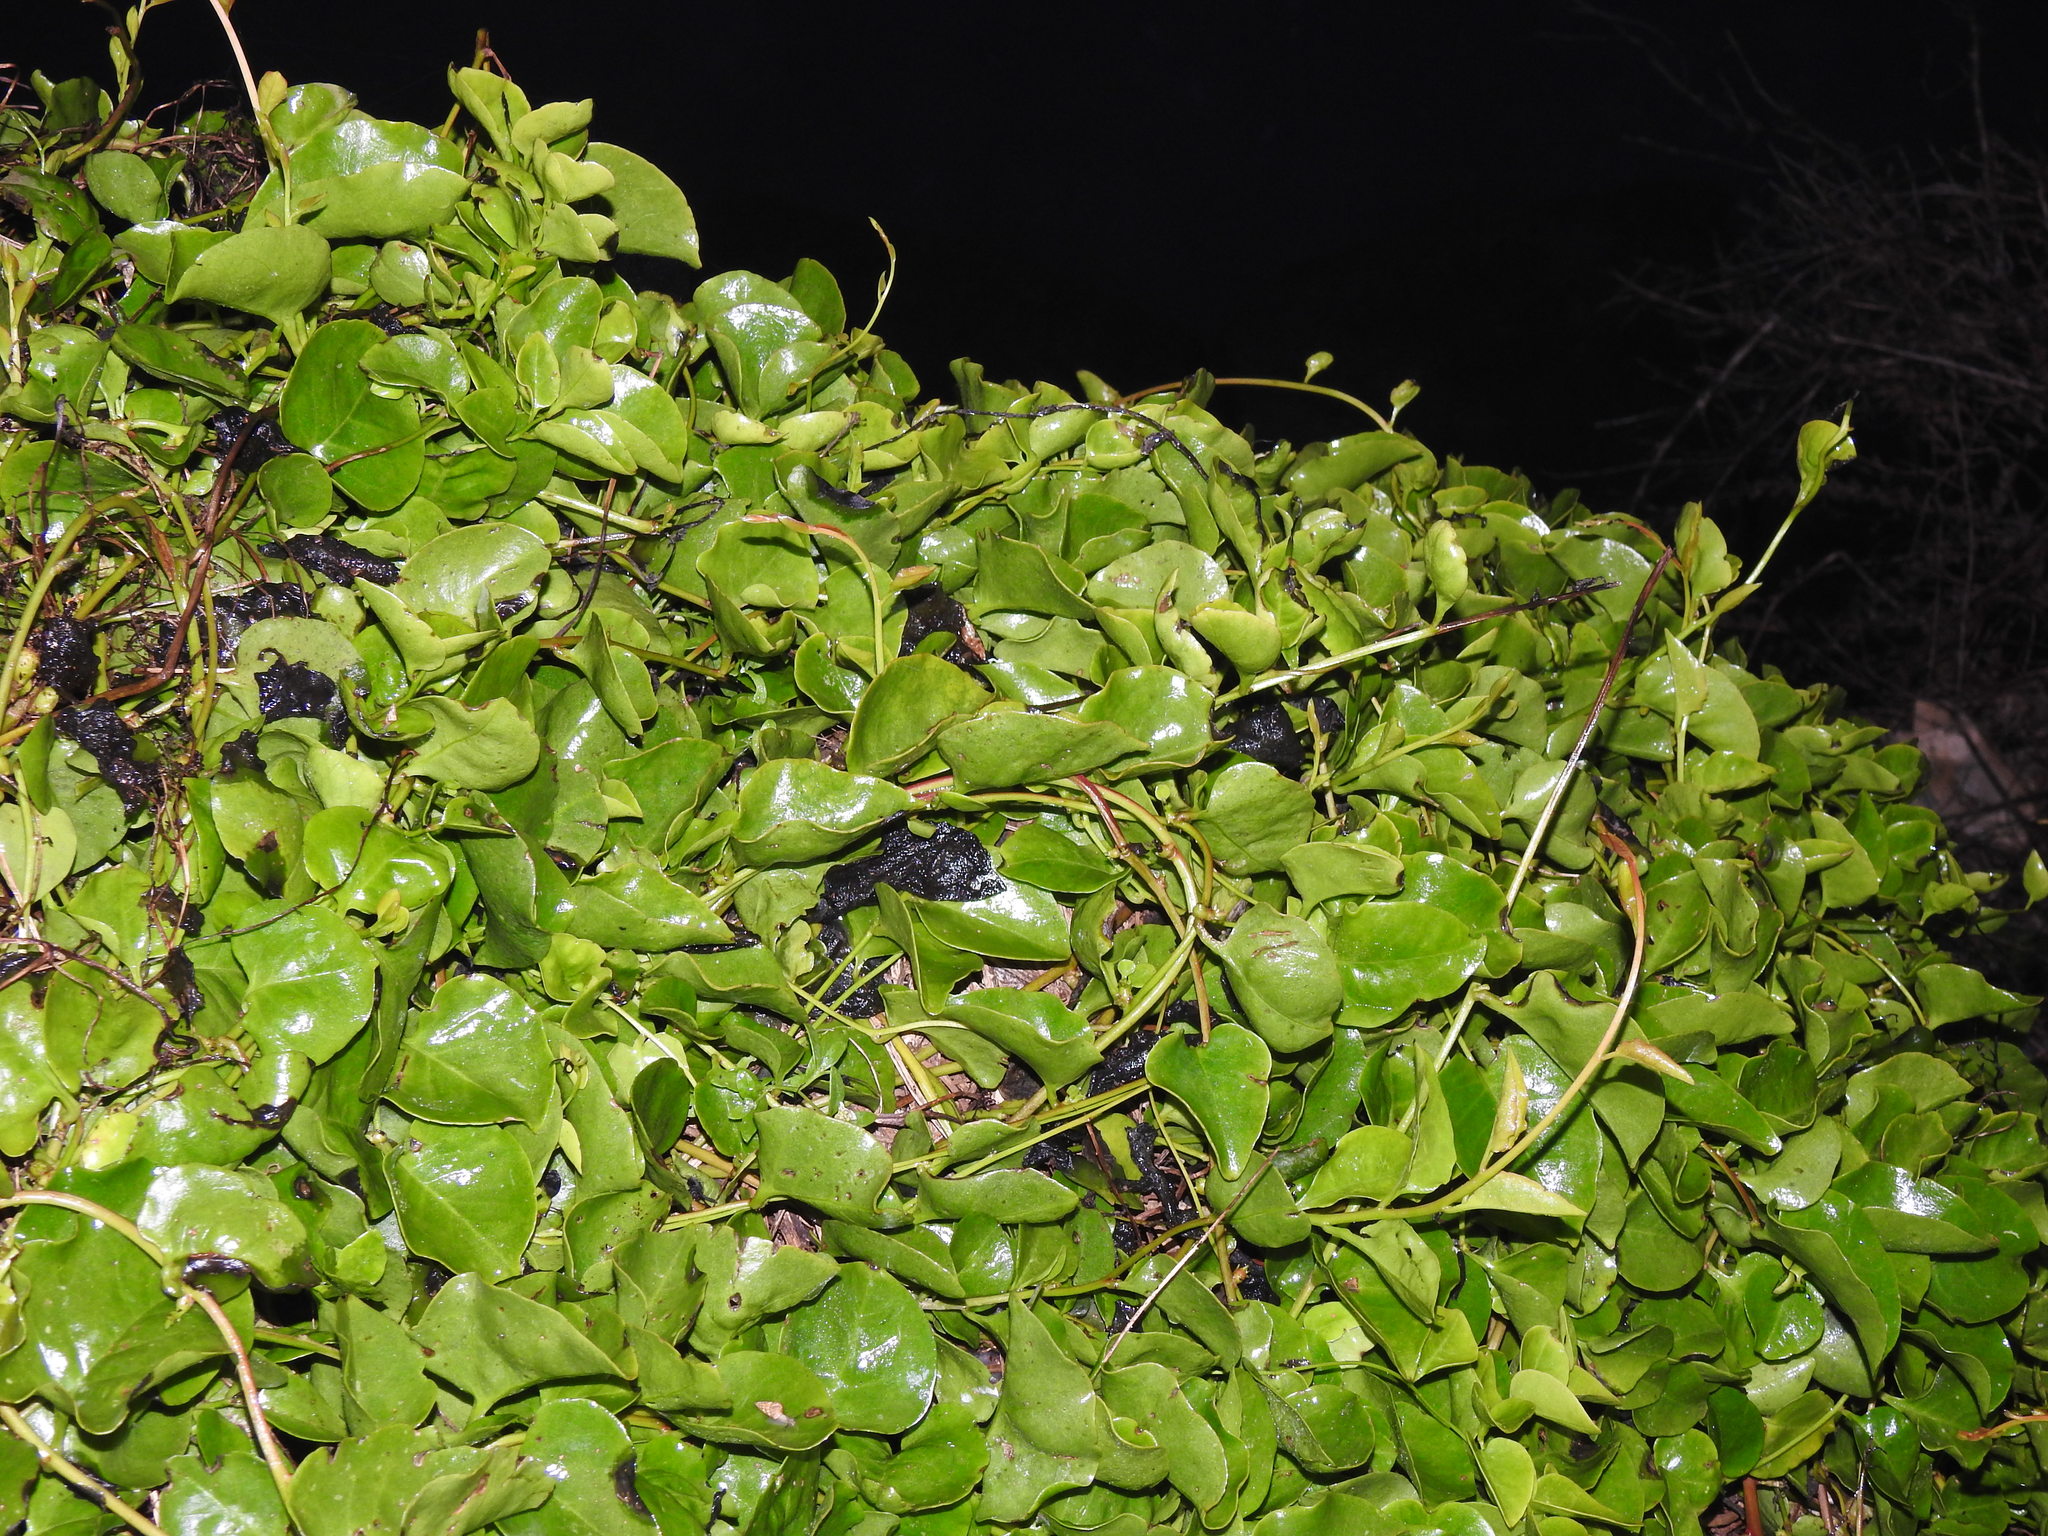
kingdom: Plantae
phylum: Tracheophyta
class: Magnoliopsida
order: Caryophyllales
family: Basellaceae
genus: Anredera
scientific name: Anredera cordifolia
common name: Heartleaf madeiravine
